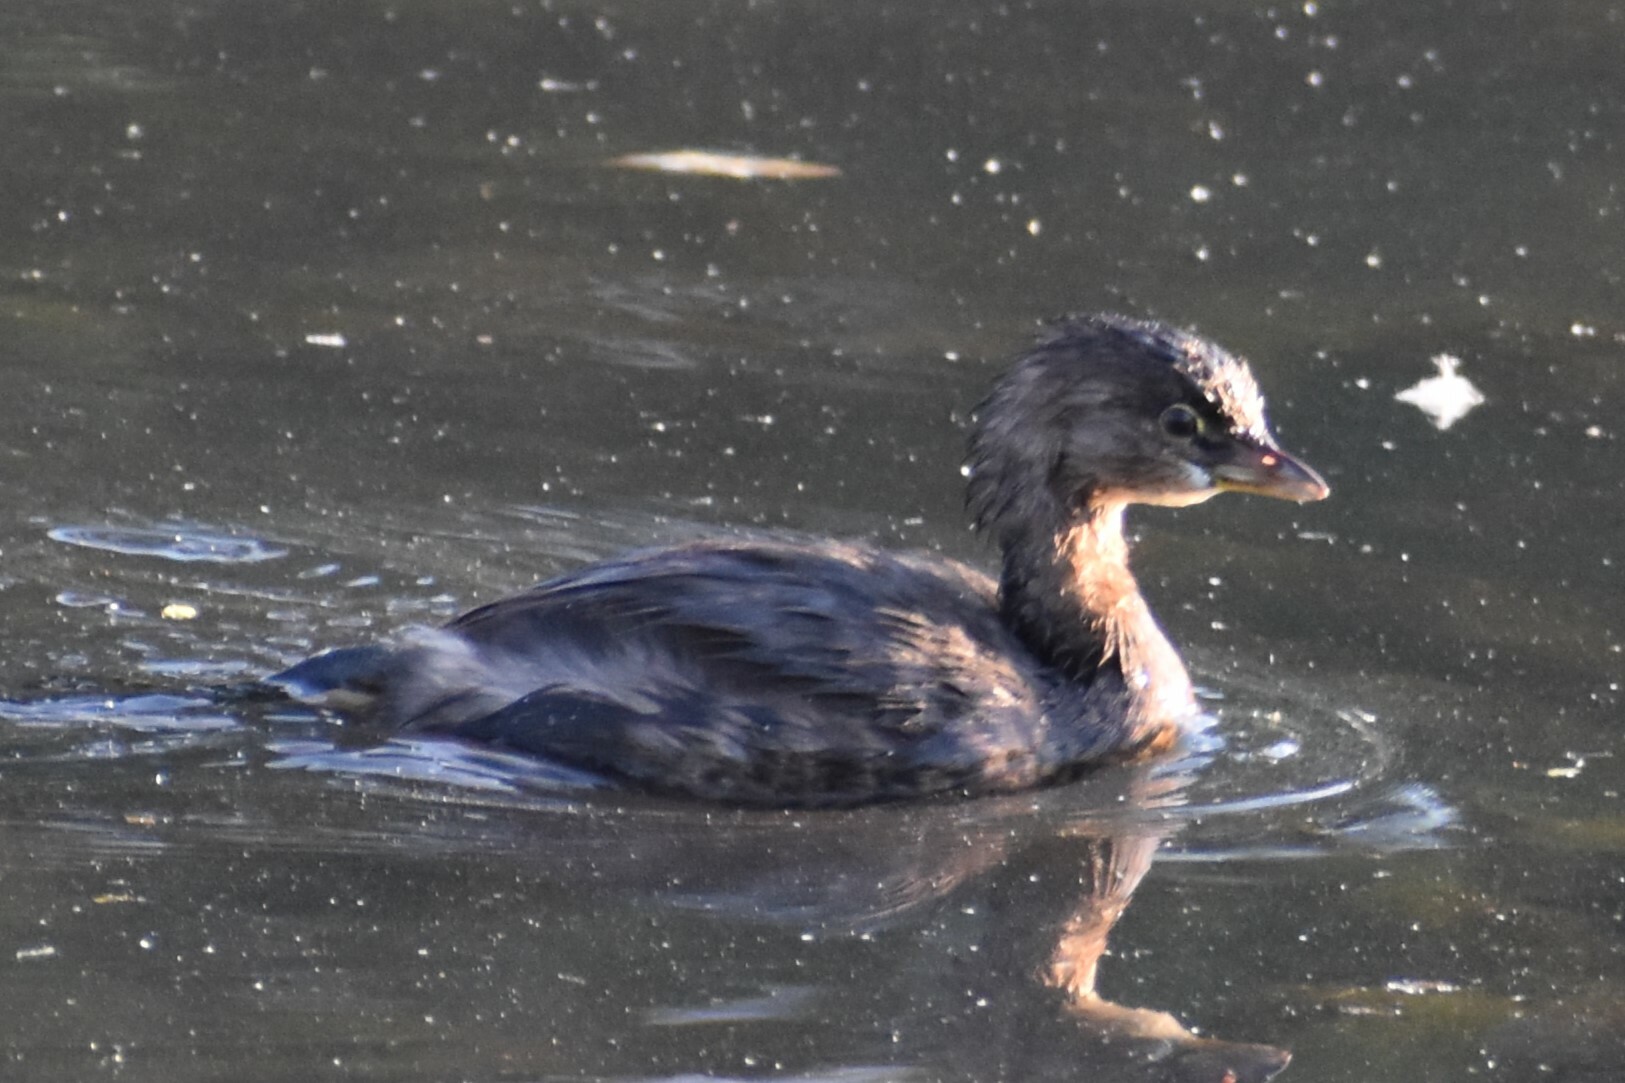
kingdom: Animalia
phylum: Chordata
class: Aves
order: Podicipediformes
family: Podicipedidae
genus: Podilymbus
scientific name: Podilymbus podiceps
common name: Pied-billed grebe
